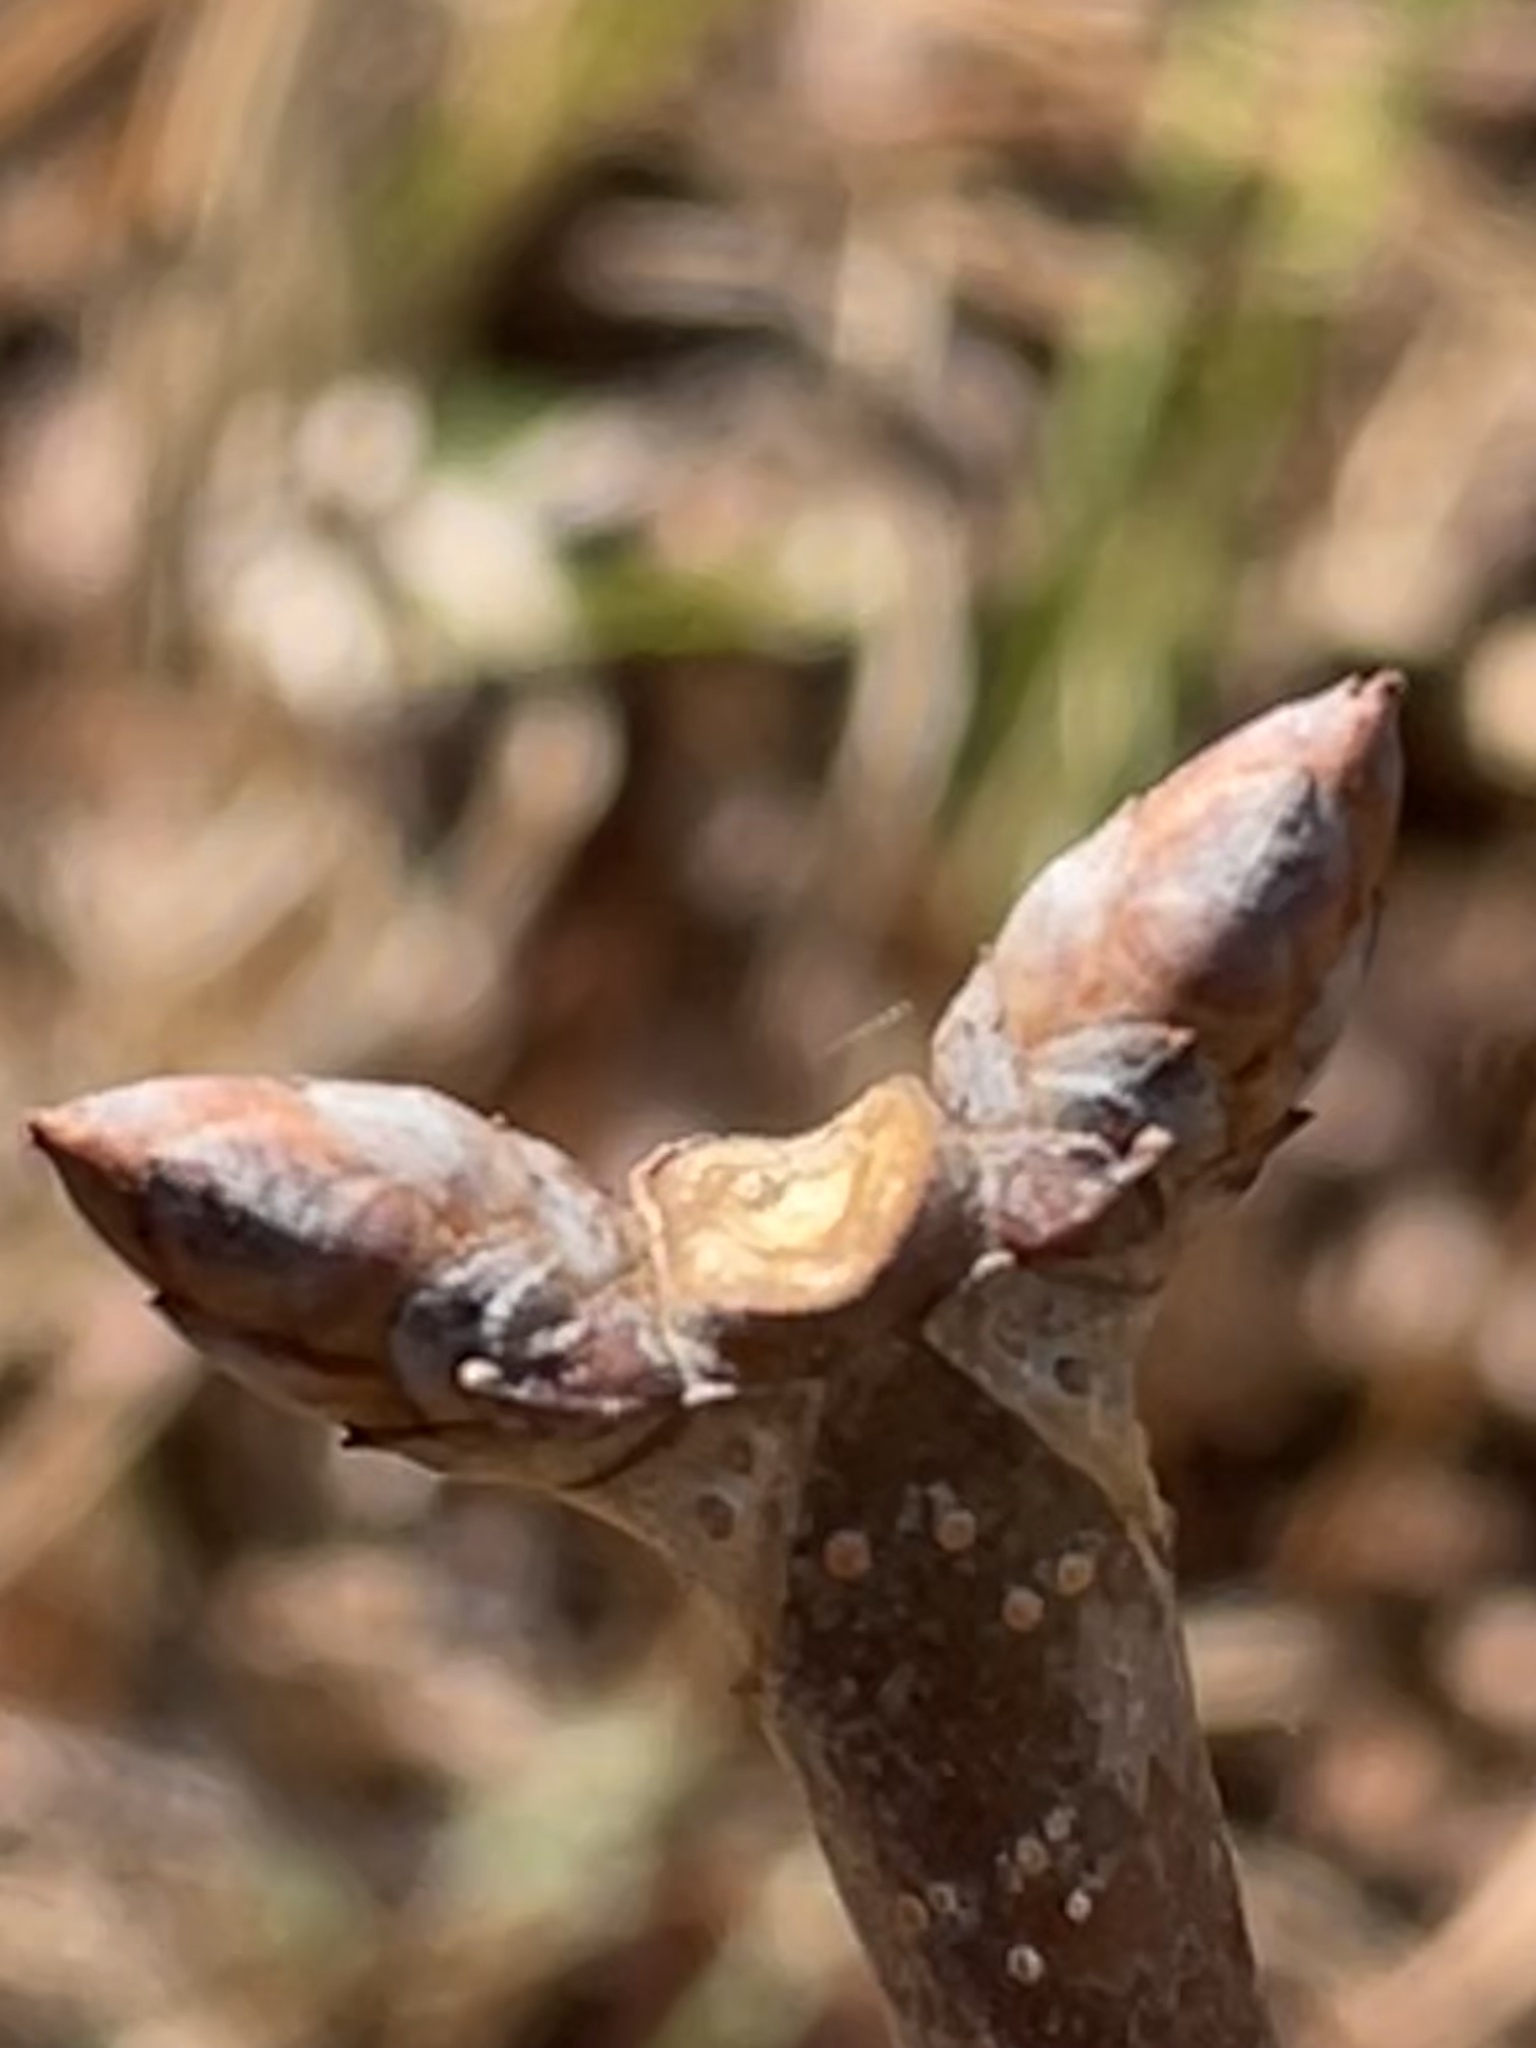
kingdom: Plantae
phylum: Tracheophyta
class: Magnoliopsida
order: Sapindales
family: Sapindaceae
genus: Aesculus
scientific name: Aesculus sylvatica
